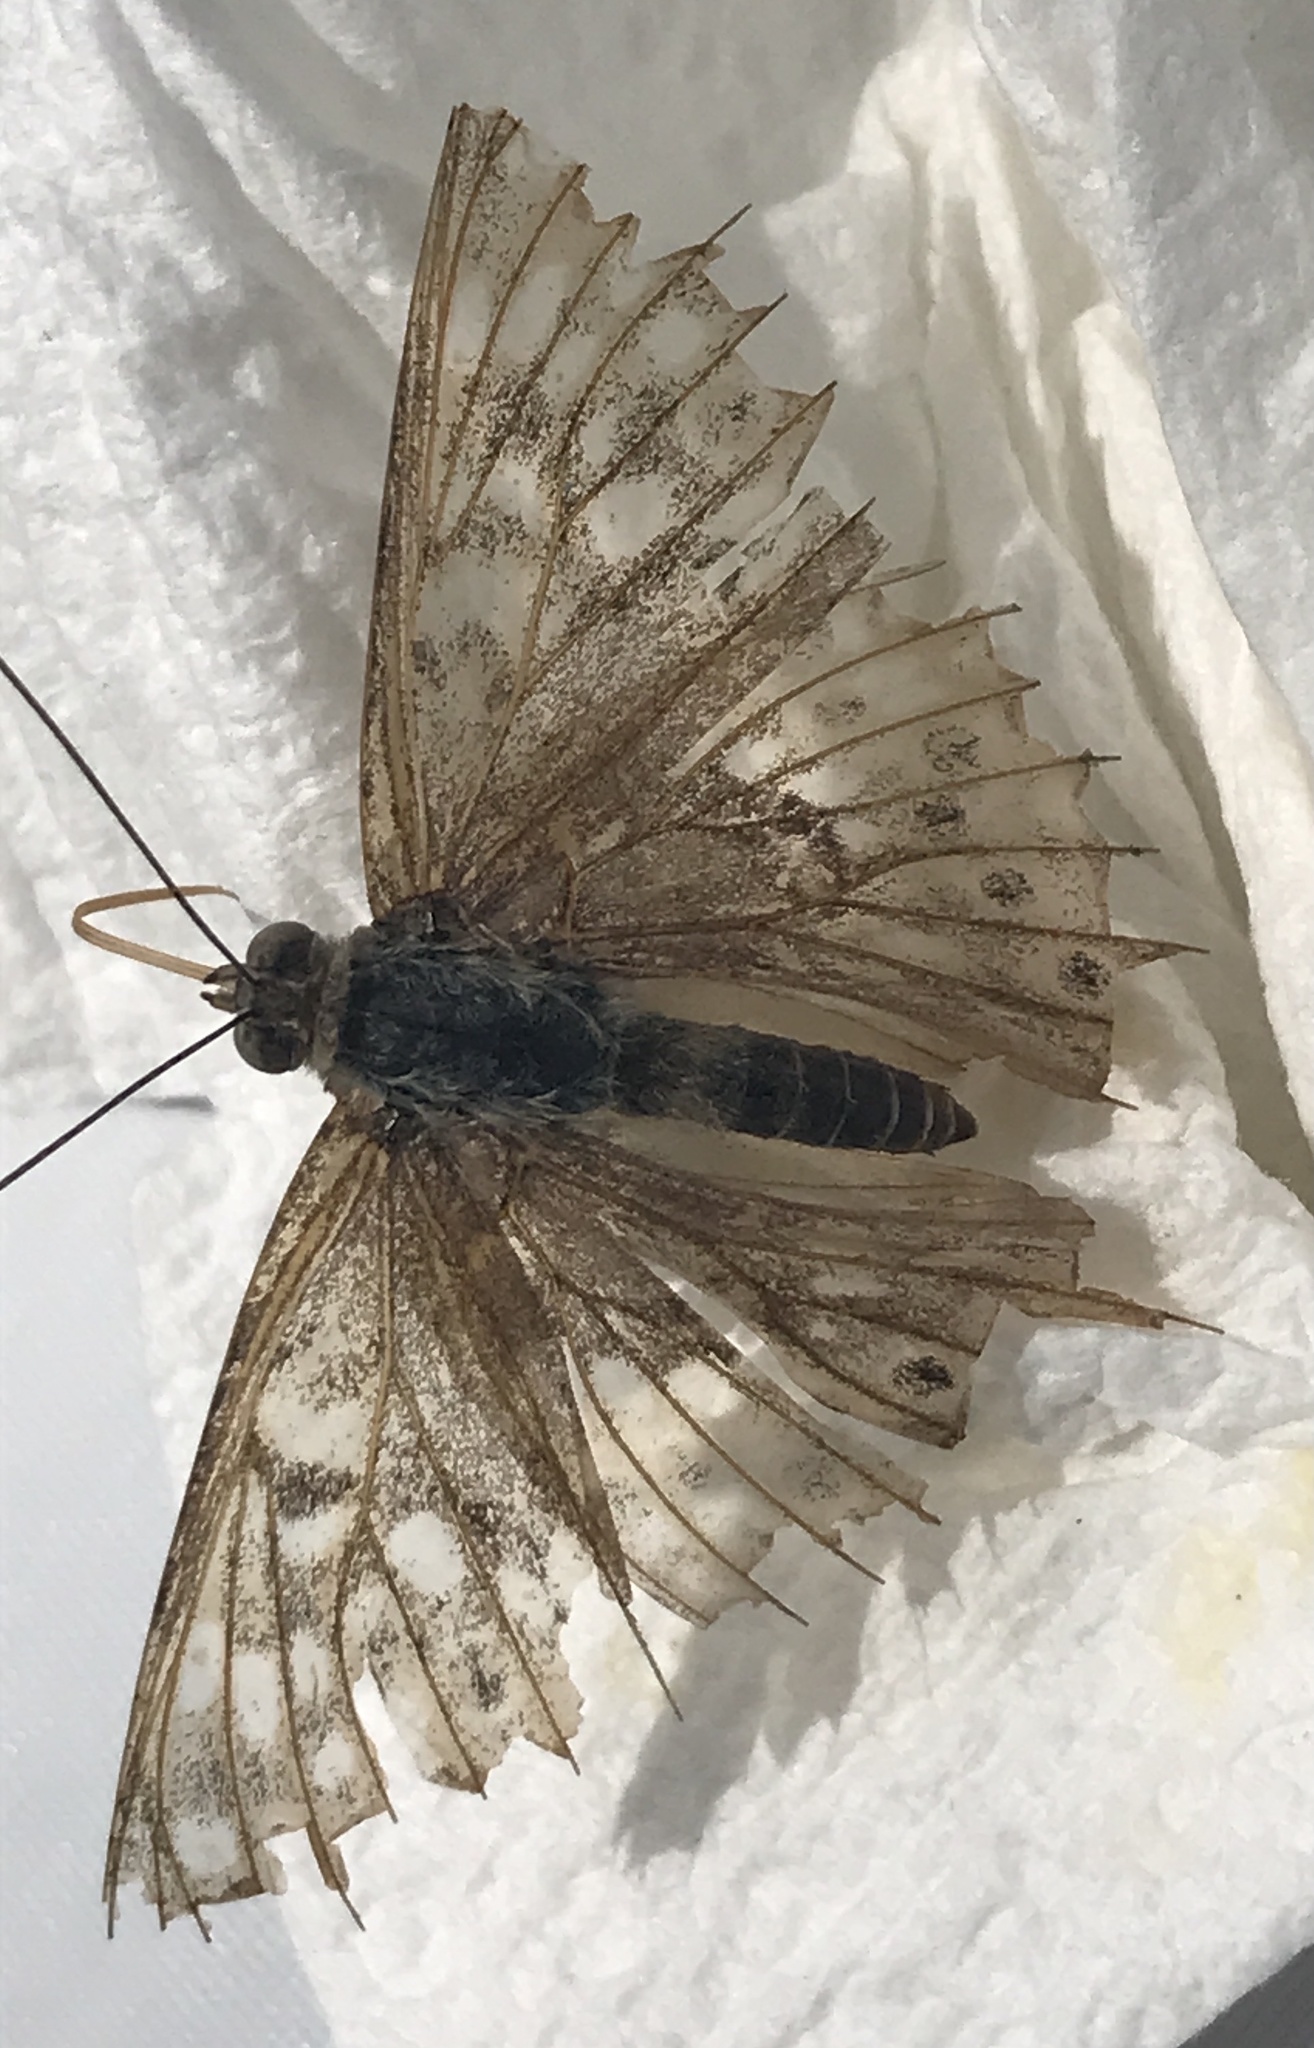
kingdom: Animalia
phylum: Arthropoda
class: Insecta
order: Lepidoptera
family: Nymphalidae
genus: Asterocampa
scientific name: Asterocampa celtis
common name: Hackberry emperor
